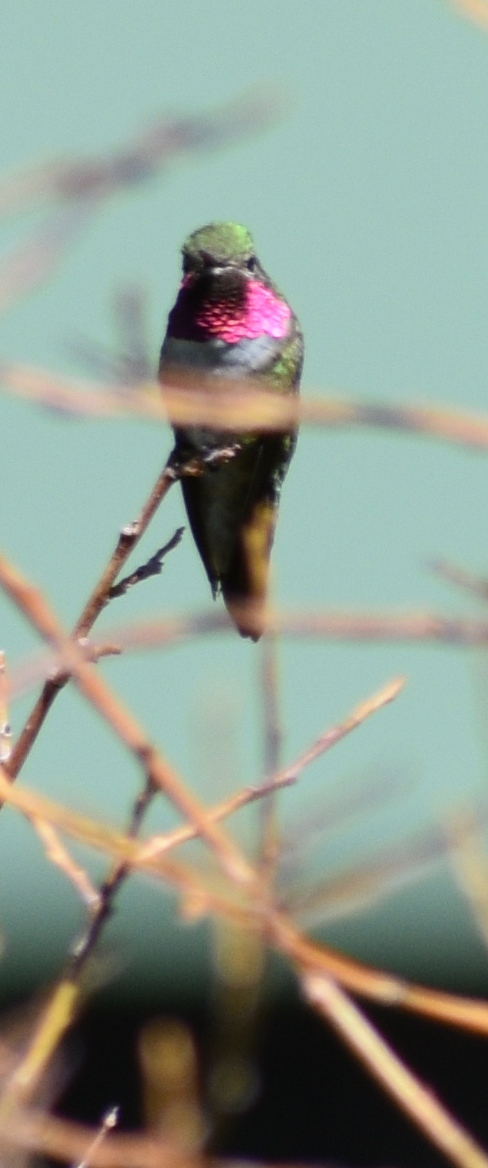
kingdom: Animalia
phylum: Chordata
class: Aves
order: Apodiformes
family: Trochilidae
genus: Selasphorus
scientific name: Selasphorus platycercus
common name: Broad-tailed hummingbird
